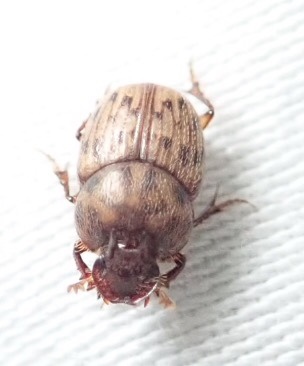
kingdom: Animalia
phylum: Arthropoda
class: Insecta
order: Coleoptera
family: Scarabaeidae
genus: Onthophagus
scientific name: Onthophagus variegatus
